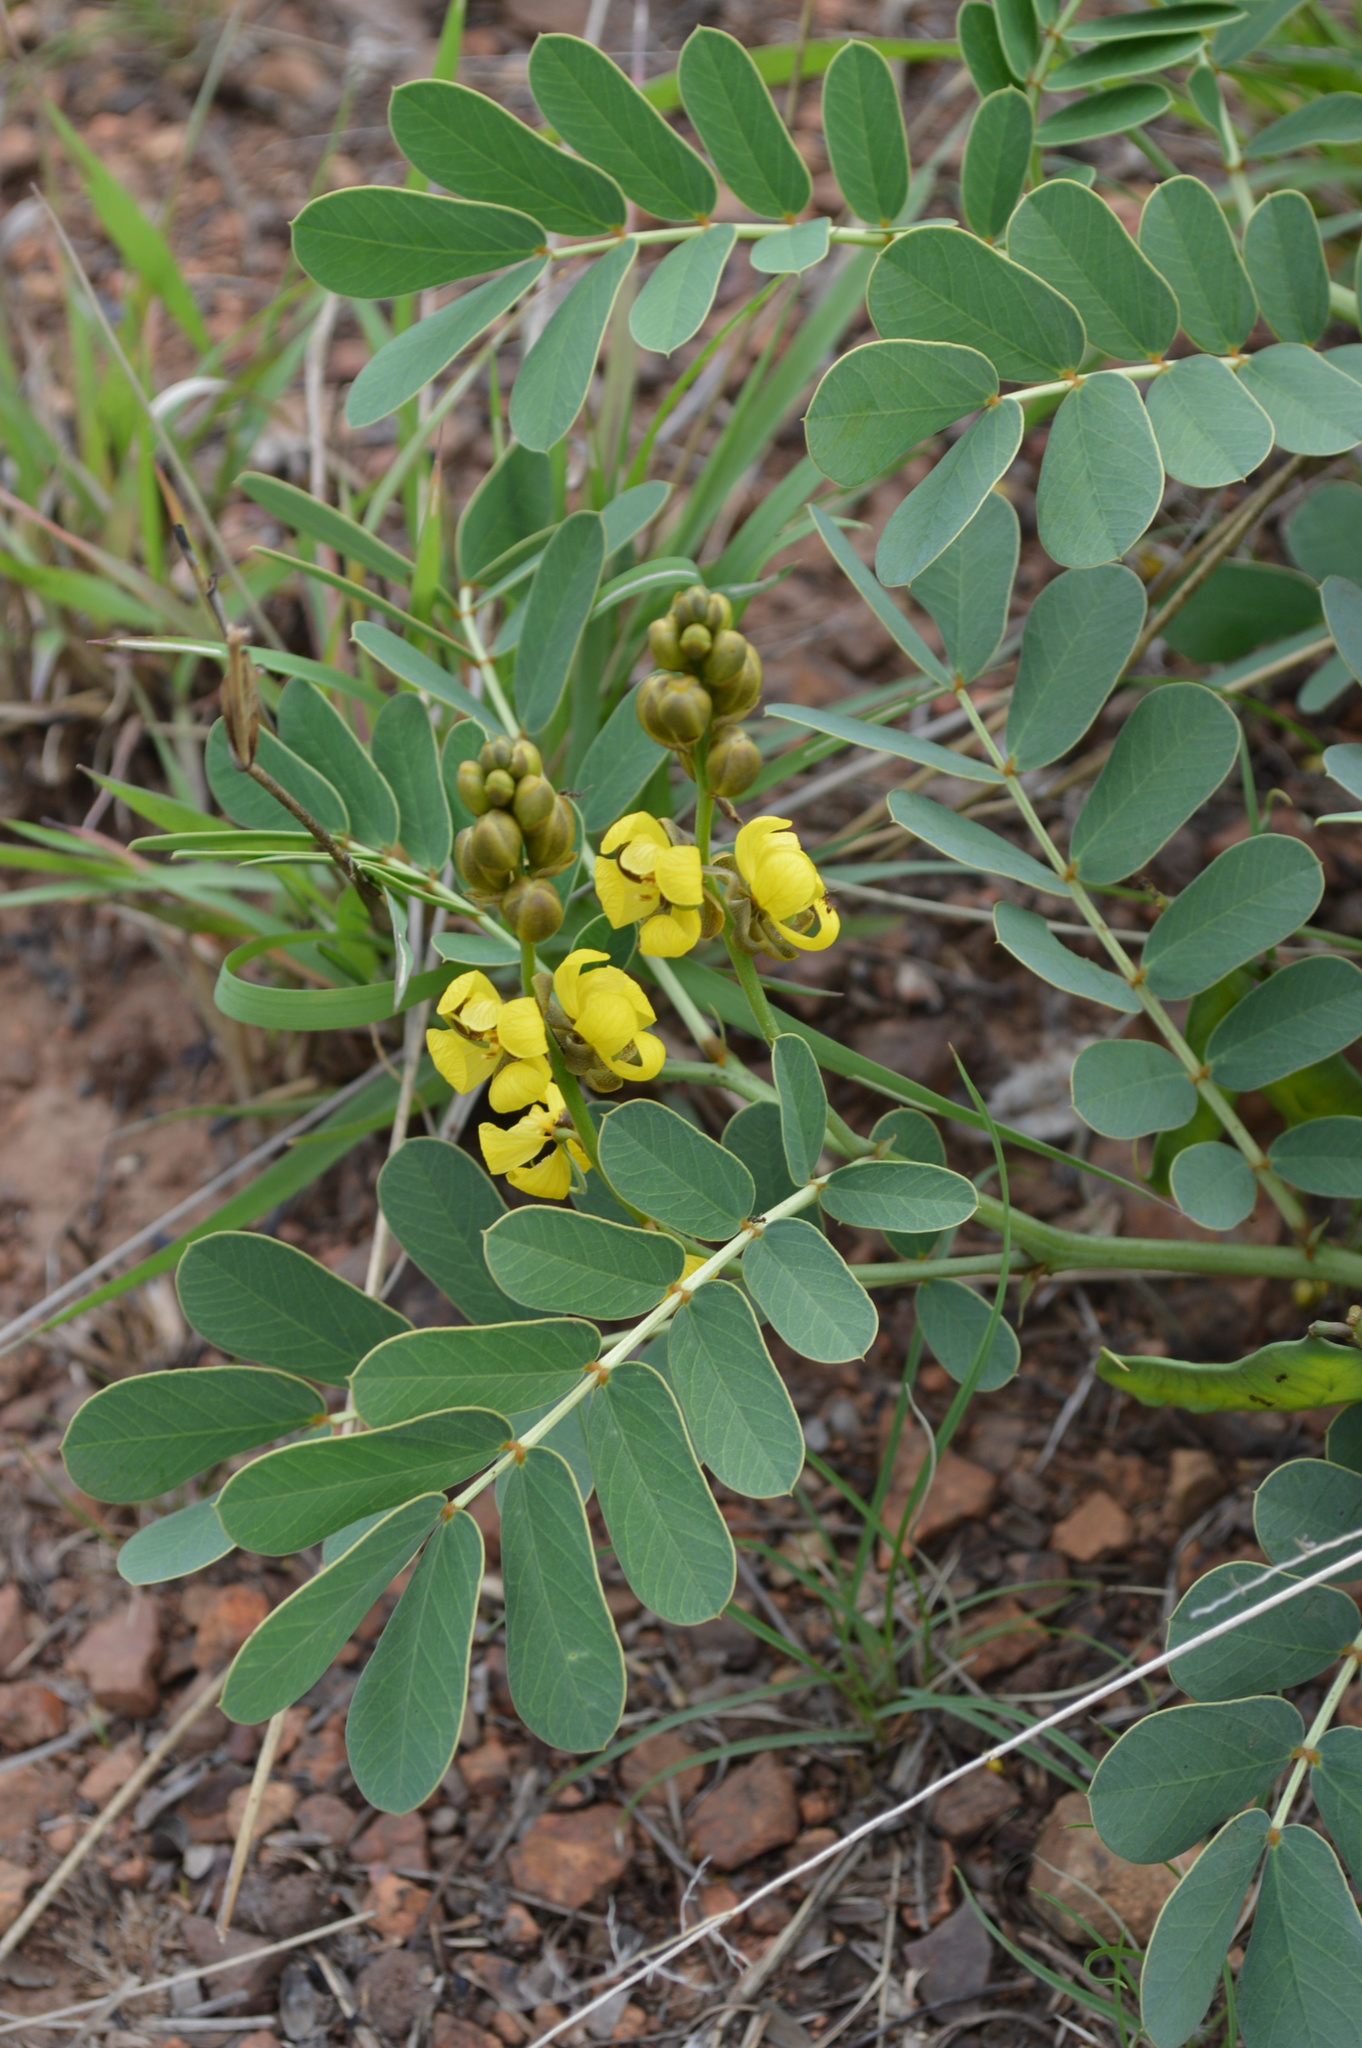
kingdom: Plantae
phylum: Tracheophyta
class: Magnoliopsida
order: Fabales
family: Fabaceae
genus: Senna
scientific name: Senna italica
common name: Port royal senna
